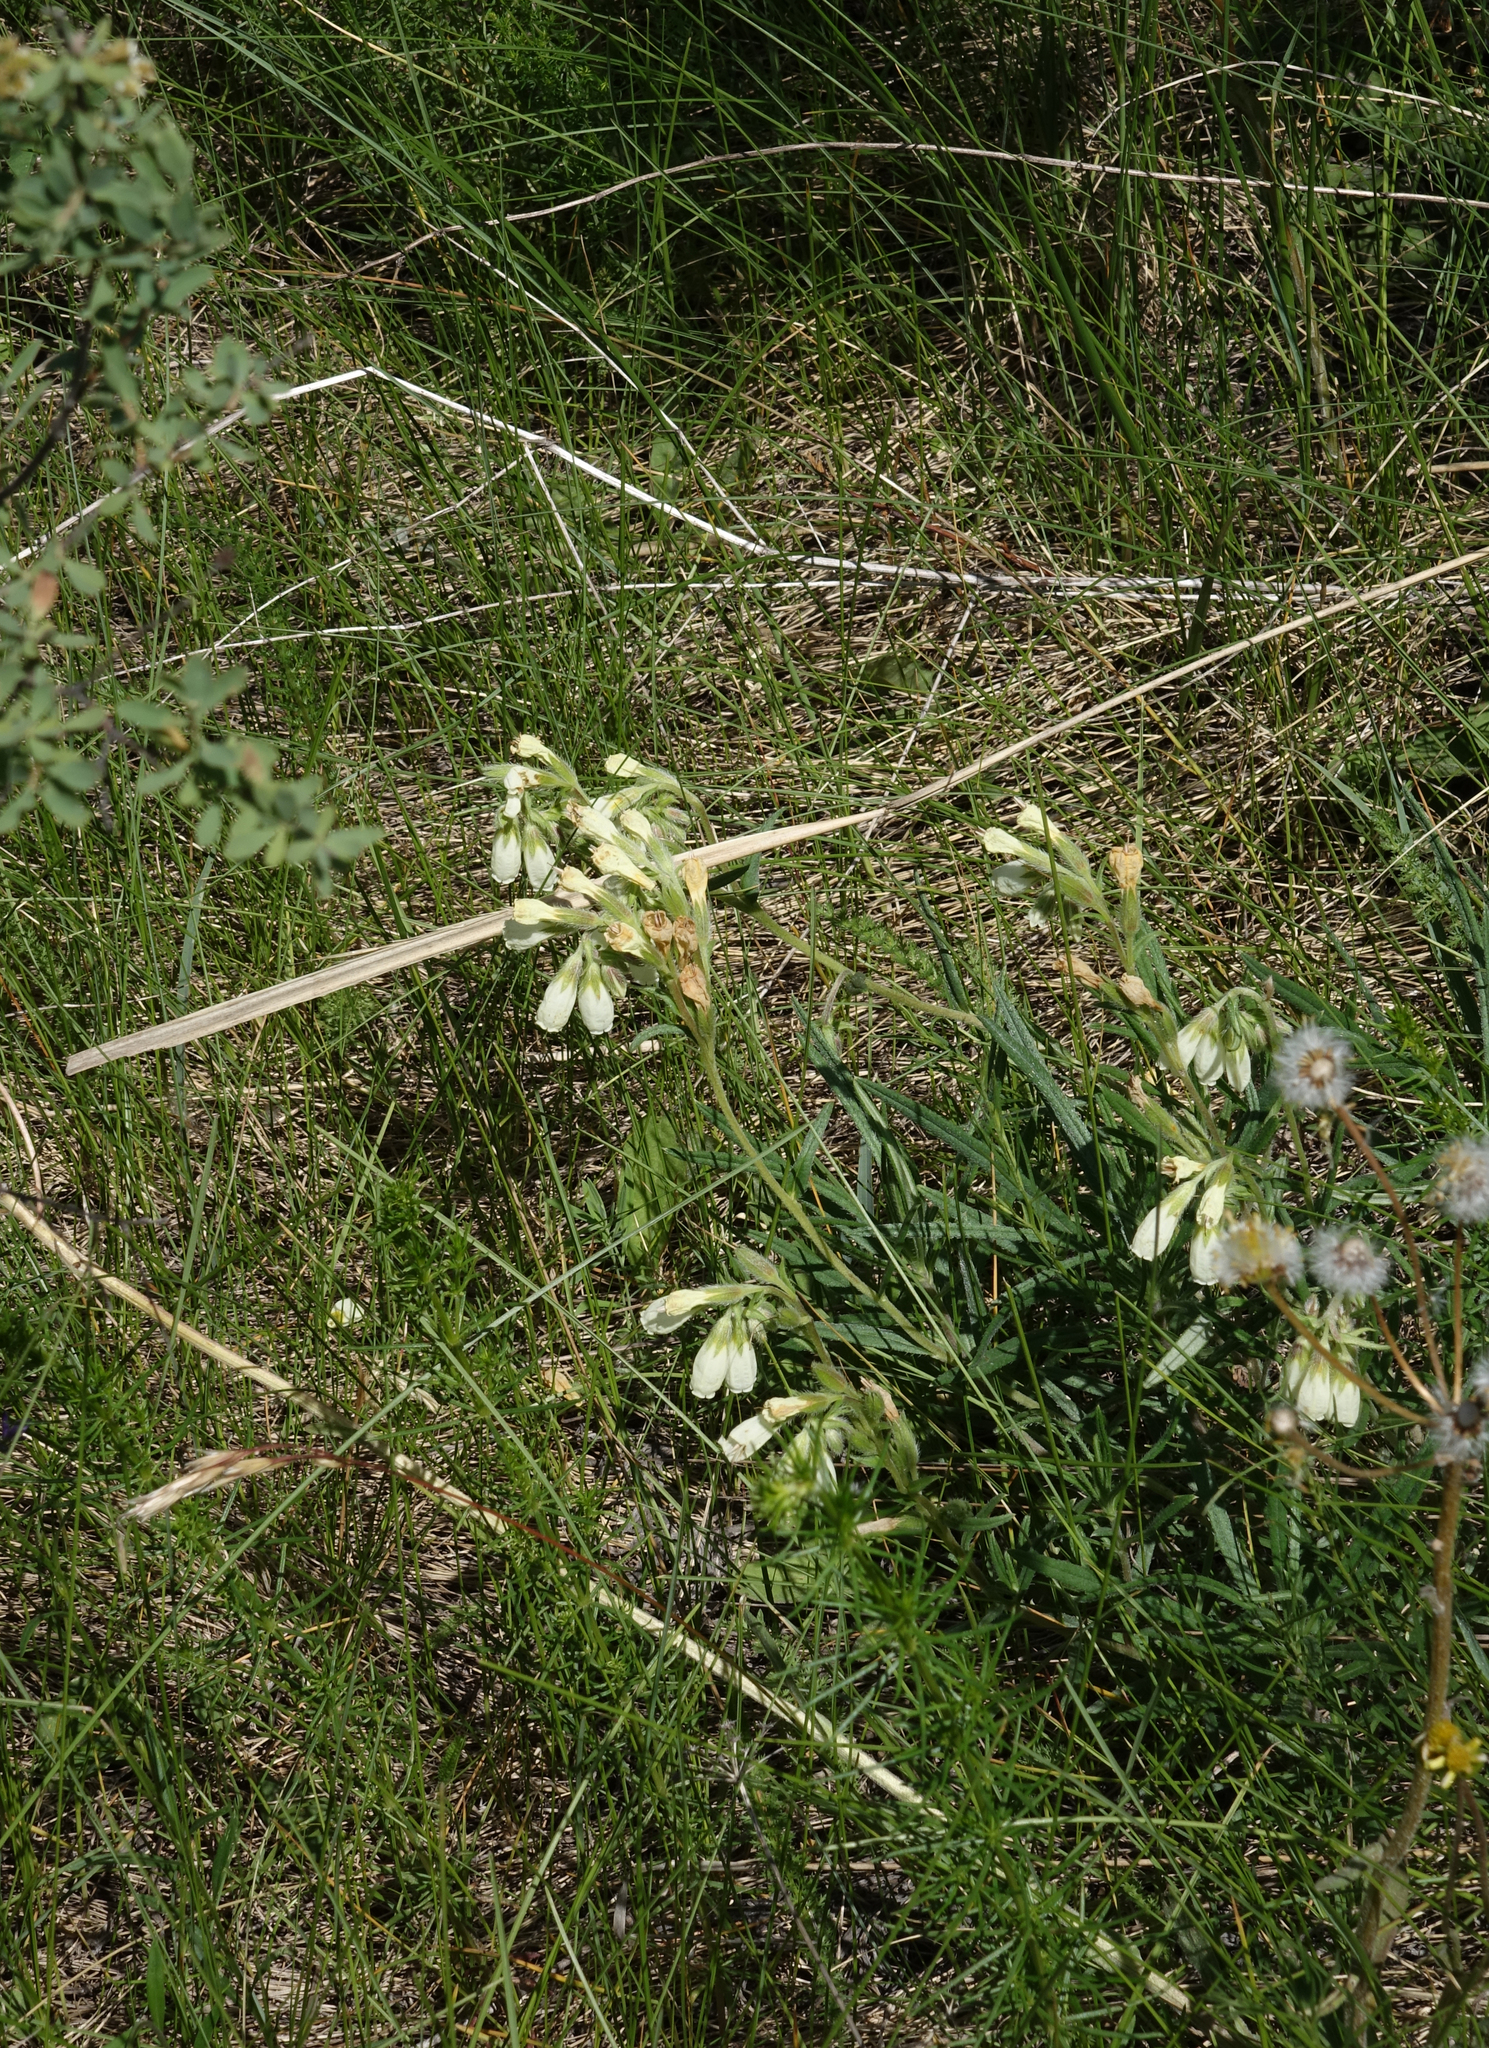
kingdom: Plantae
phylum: Tracheophyta
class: Magnoliopsida
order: Boraginales
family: Boraginaceae
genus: Onosma
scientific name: Onosma simplicissima
